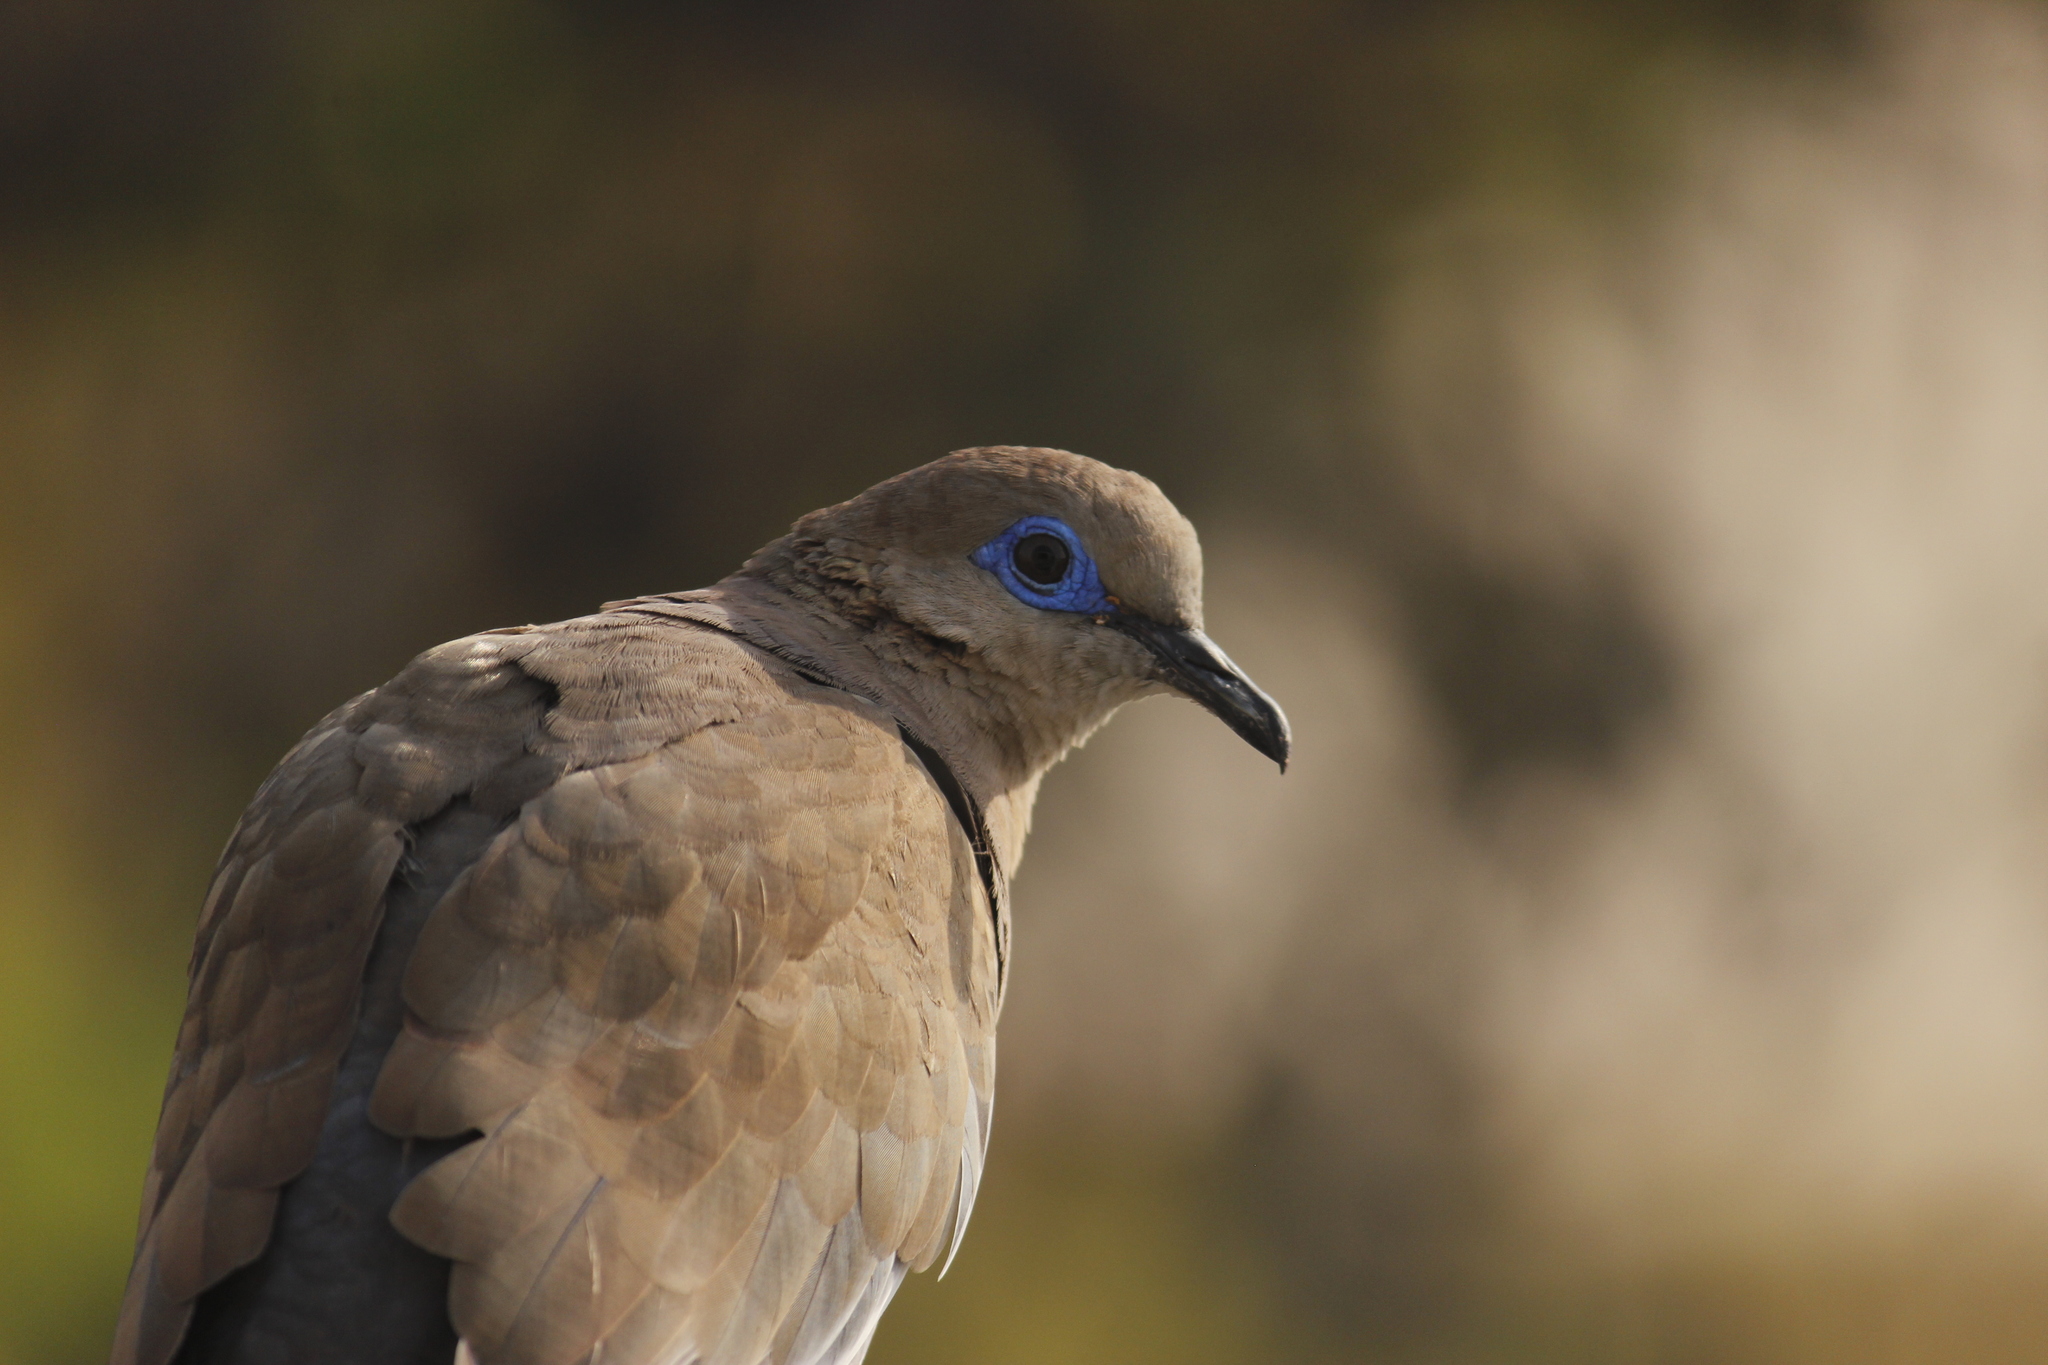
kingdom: Animalia
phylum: Chordata
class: Aves
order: Columbiformes
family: Columbidae
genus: Zenaida
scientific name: Zenaida meloda
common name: West peruvian dove
